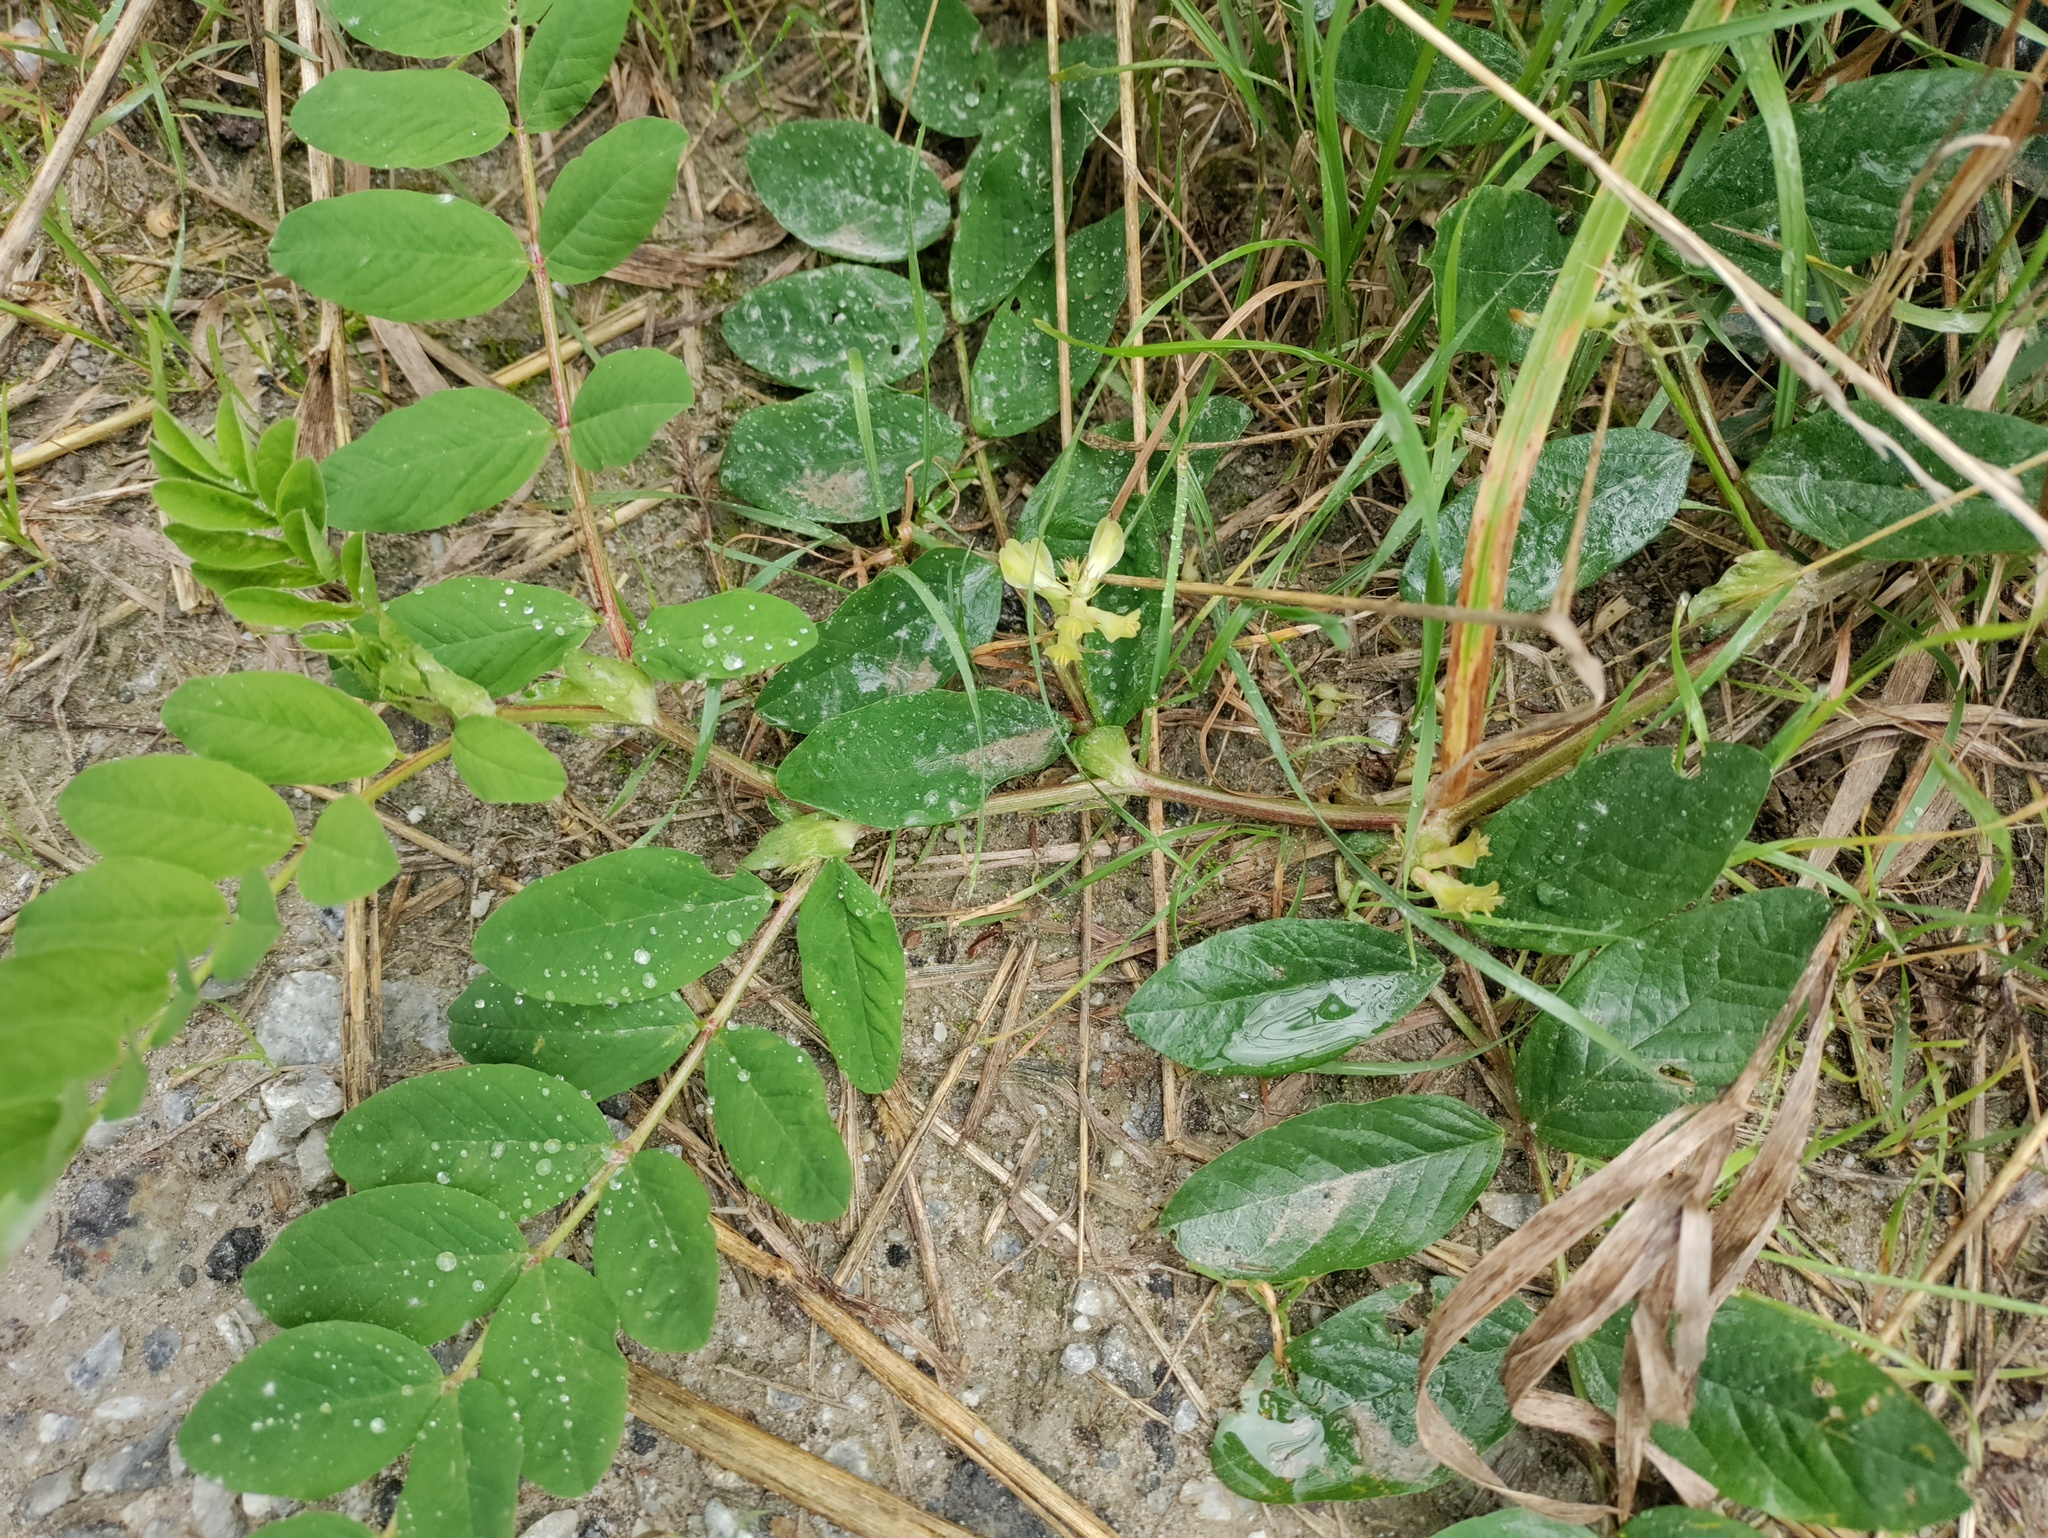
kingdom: Plantae
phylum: Tracheophyta
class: Magnoliopsida
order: Fabales
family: Fabaceae
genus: Astragalus
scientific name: Astragalus glycyphyllos
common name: Wild liquorice
